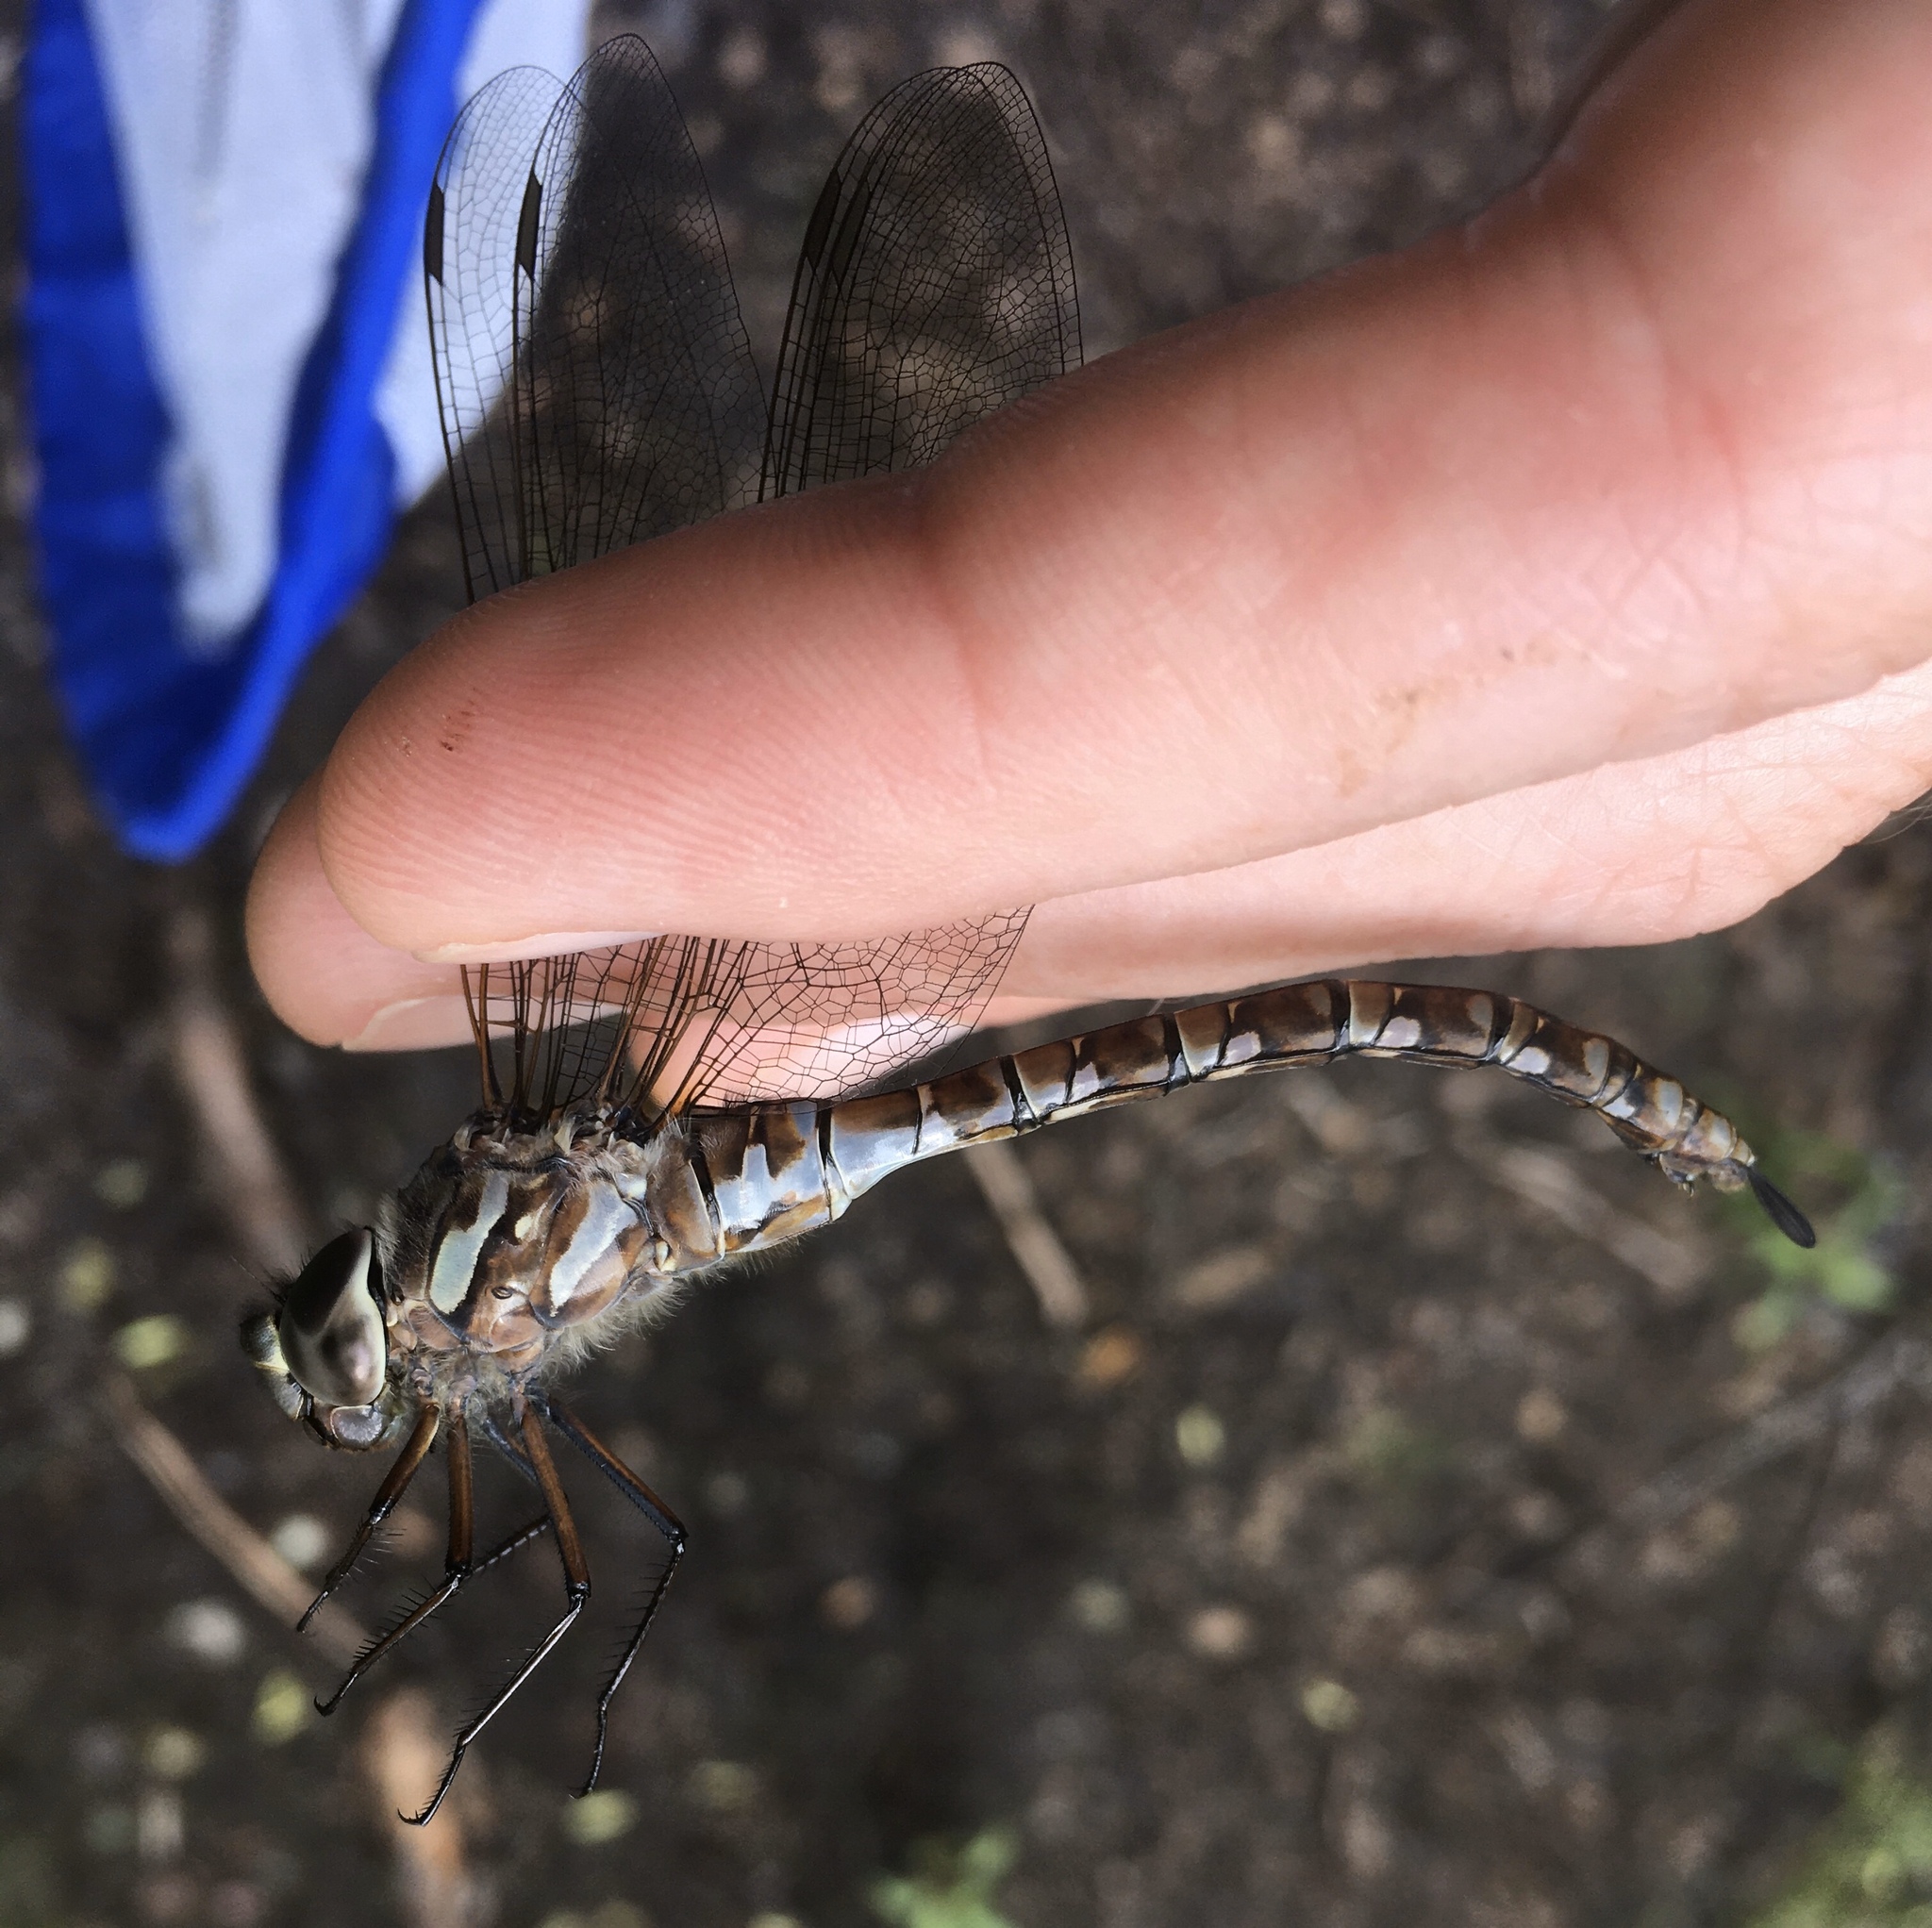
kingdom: Animalia
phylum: Arthropoda
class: Insecta
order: Odonata
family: Aeshnidae
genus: Aeshna
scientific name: Aeshna canadensis
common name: Canada darner
